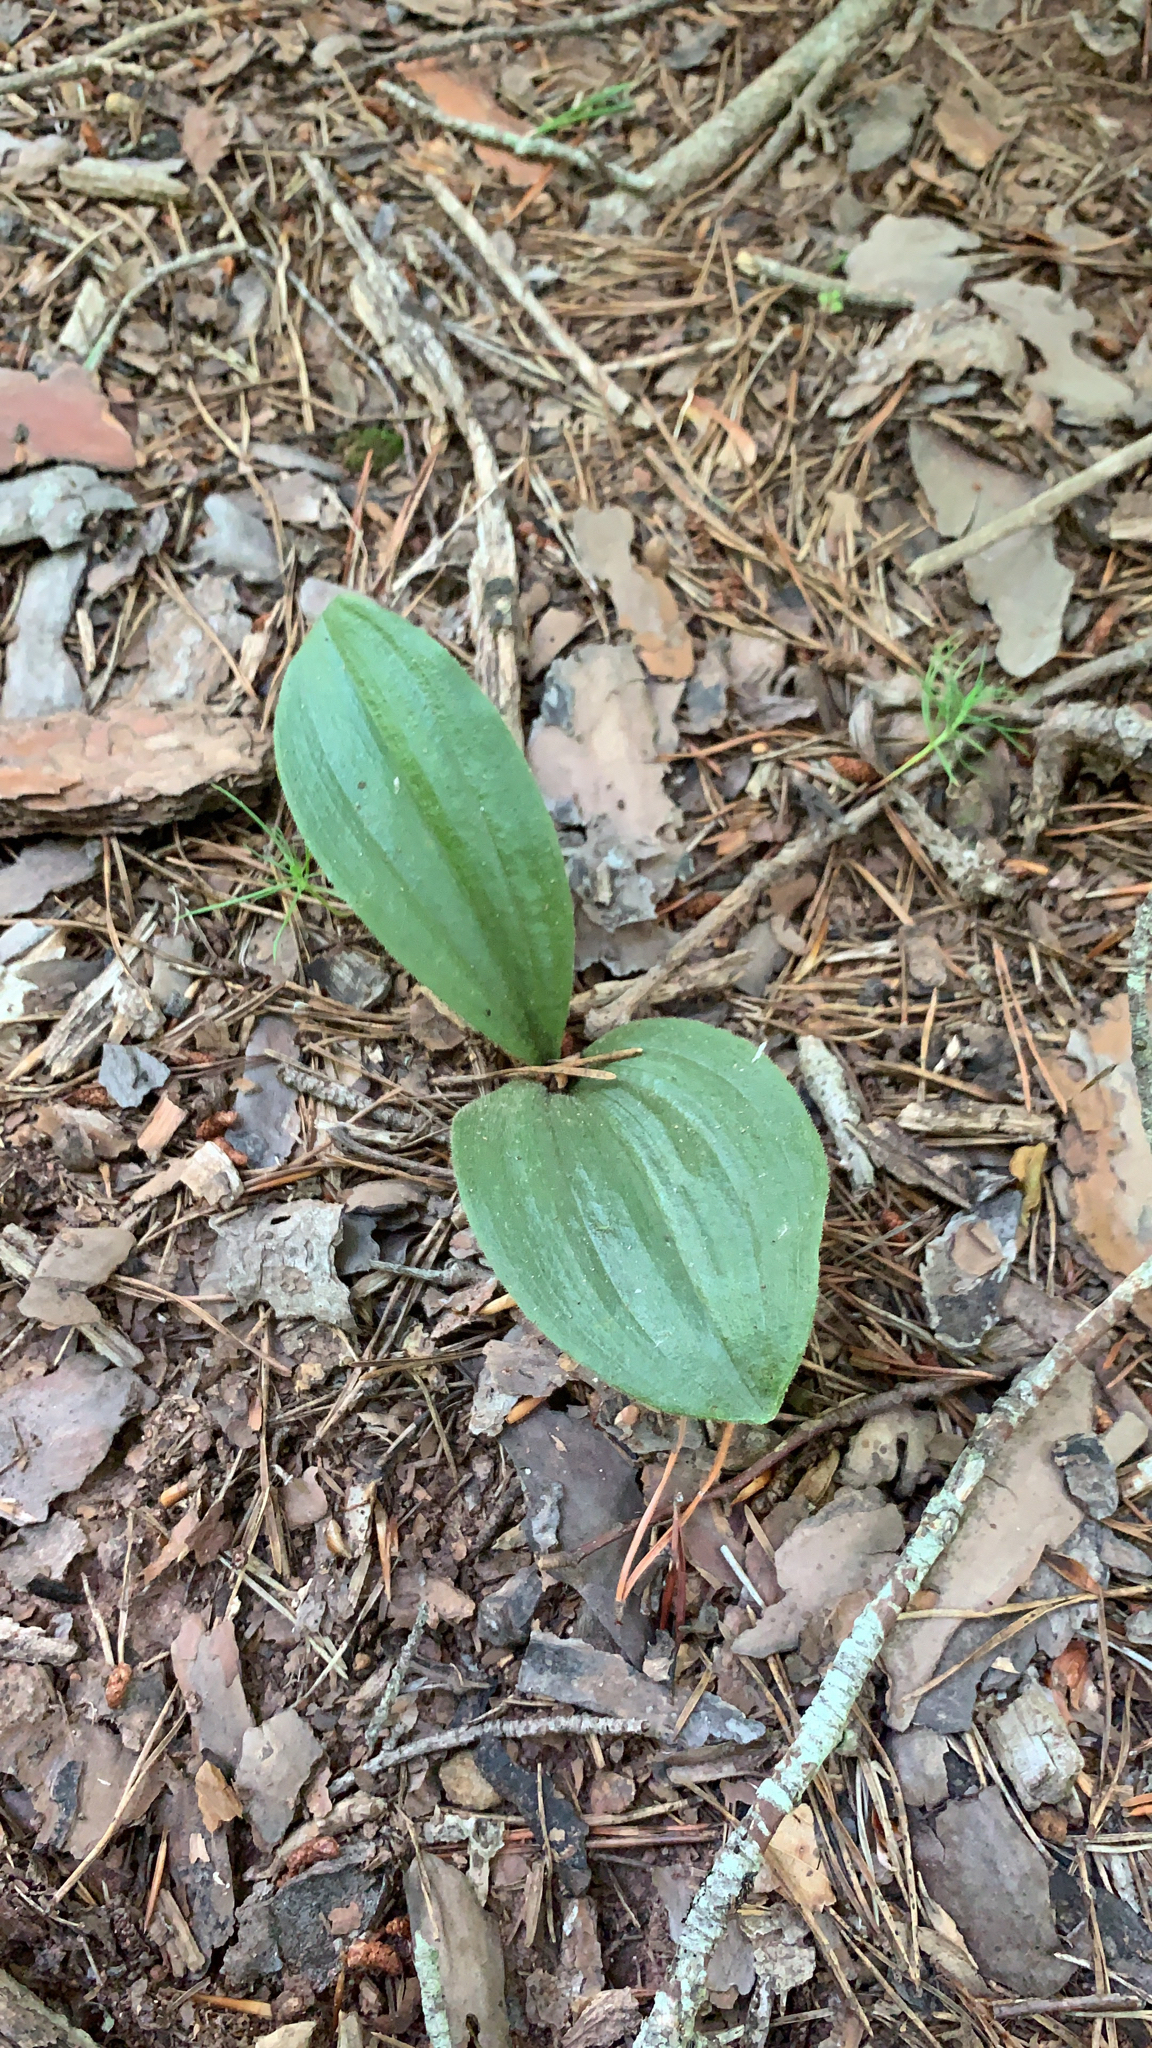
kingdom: Plantae
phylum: Tracheophyta
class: Liliopsida
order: Asparagales
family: Orchidaceae
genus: Cypripedium
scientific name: Cypripedium acaule
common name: Pink lady's-slipper
